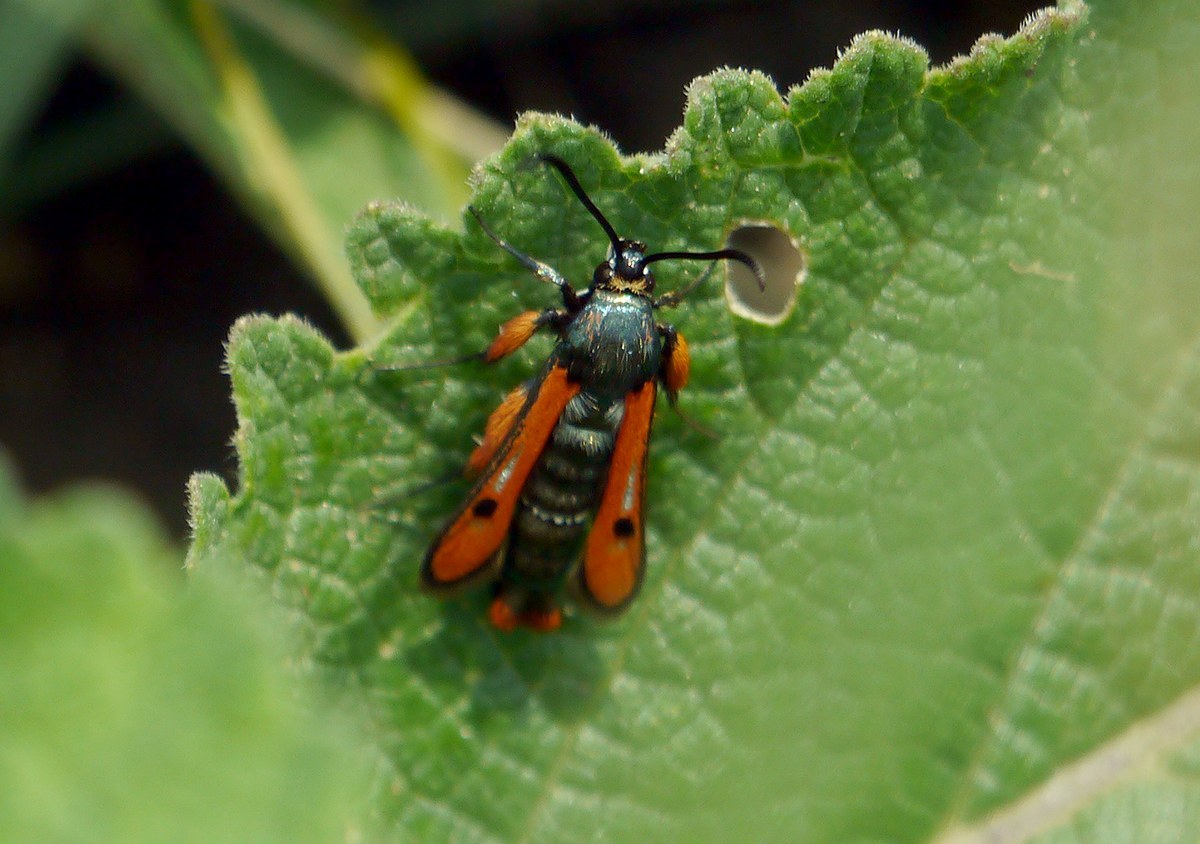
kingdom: Animalia
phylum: Arthropoda
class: Insecta
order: Lepidoptera
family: Sesiidae
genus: Chamaesphecia
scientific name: Chamaesphecia schmidtiiformis
